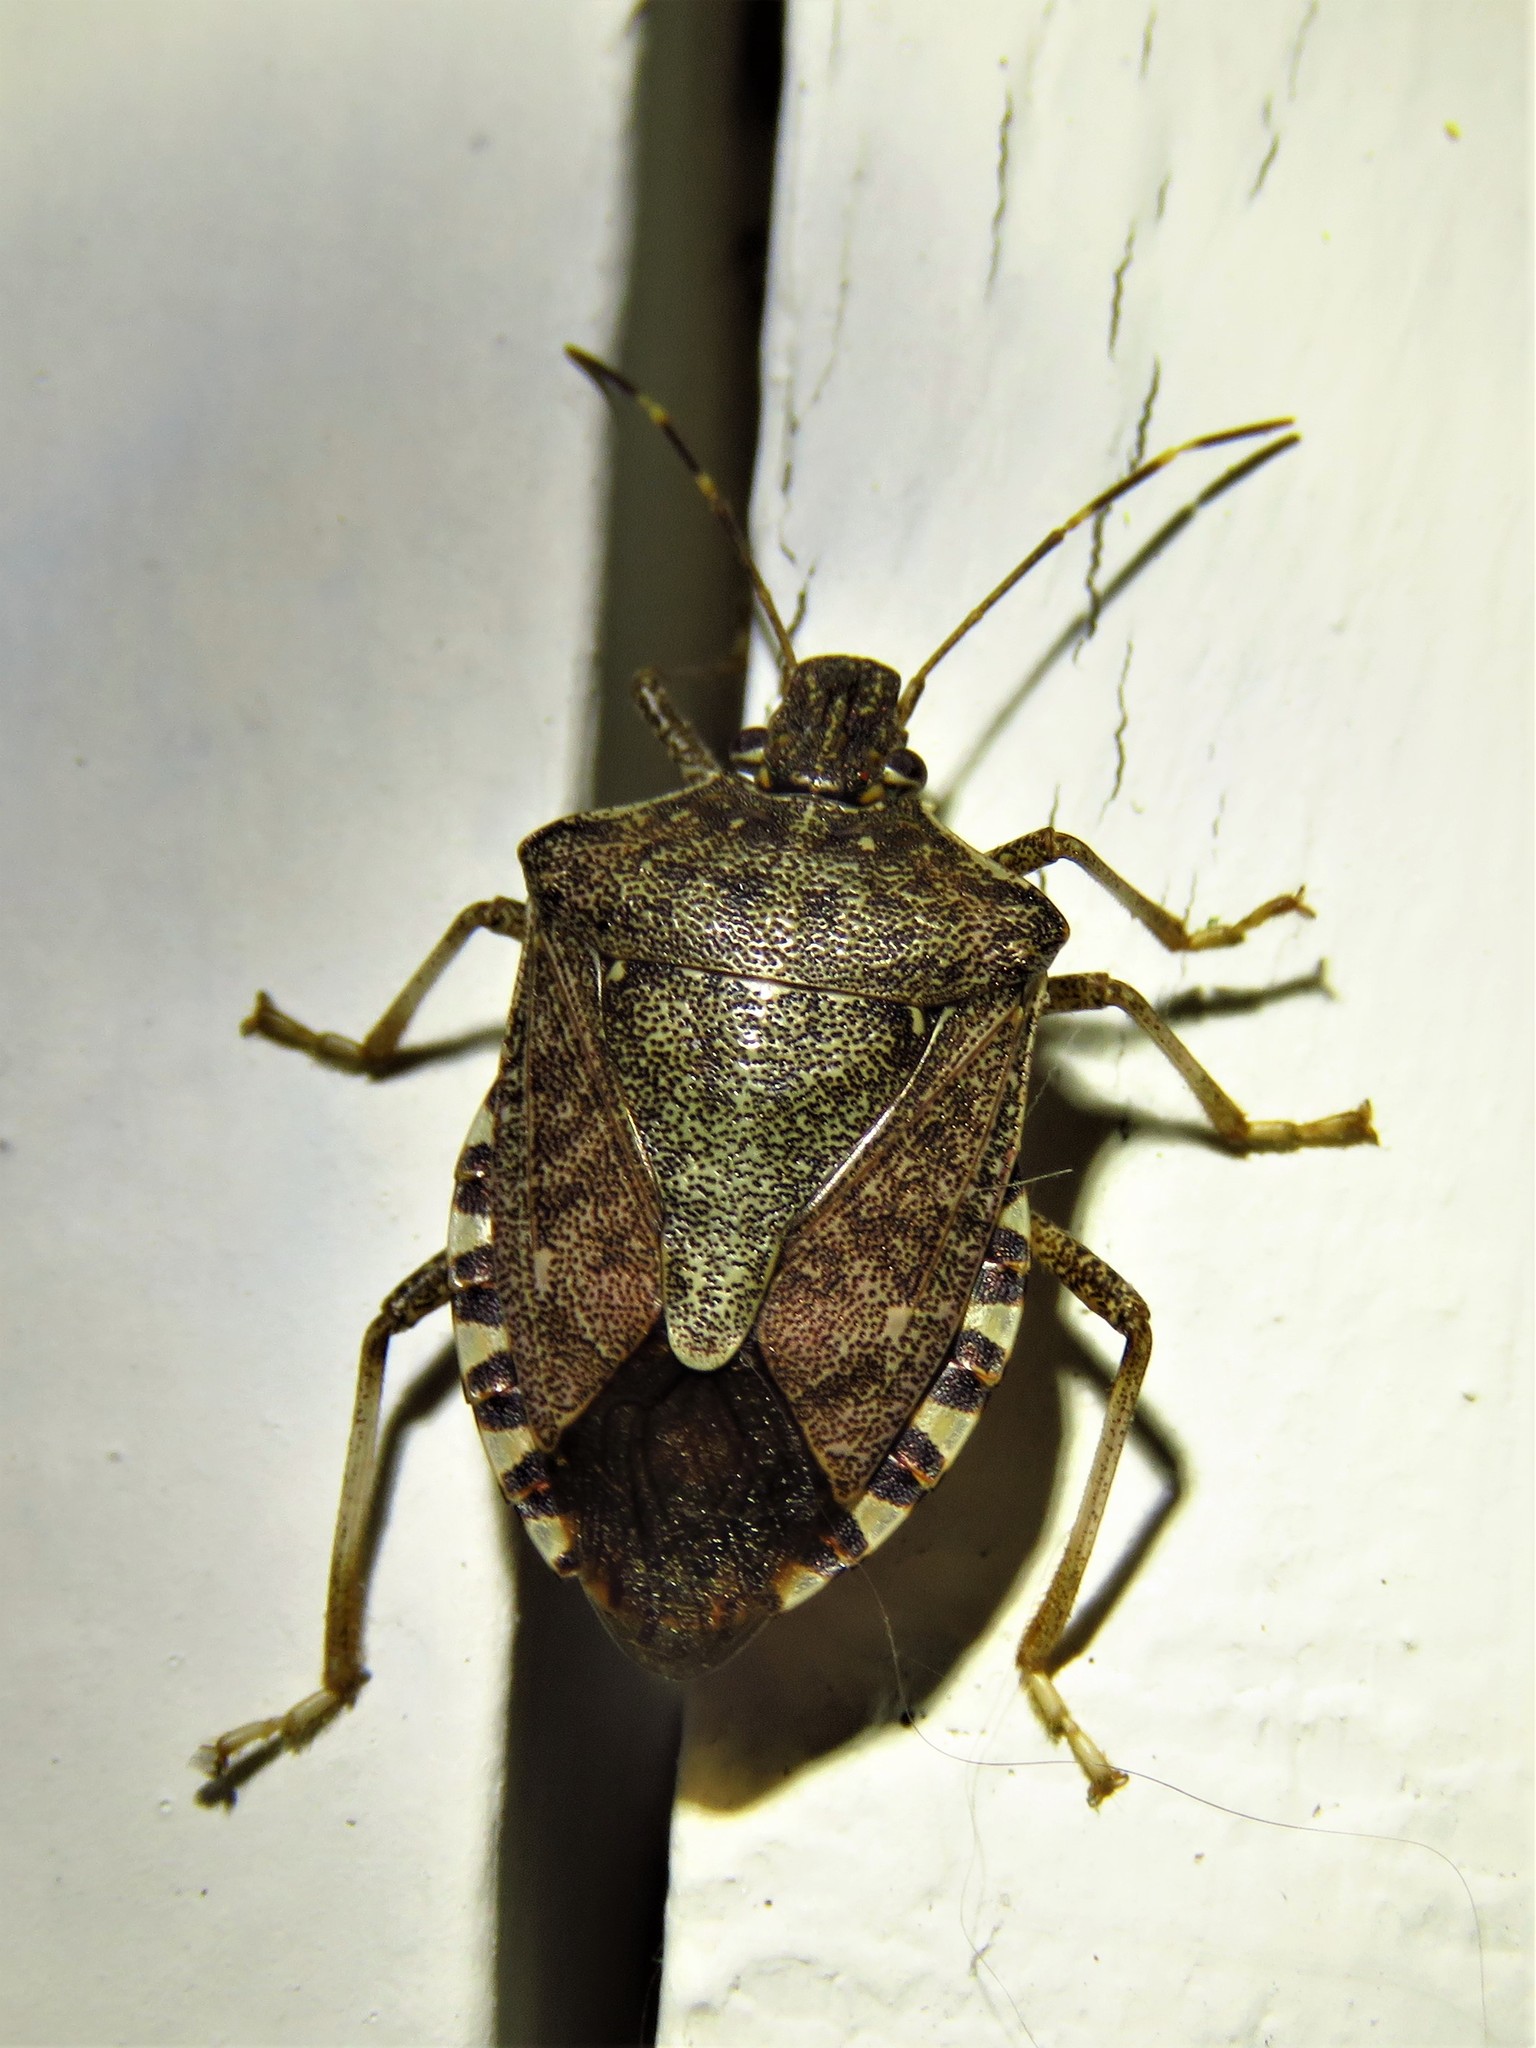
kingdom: Animalia
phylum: Arthropoda
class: Insecta
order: Hemiptera
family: Pentatomidae
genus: Halyomorpha
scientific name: Halyomorpha halys
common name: Brown marmorated stink bug
